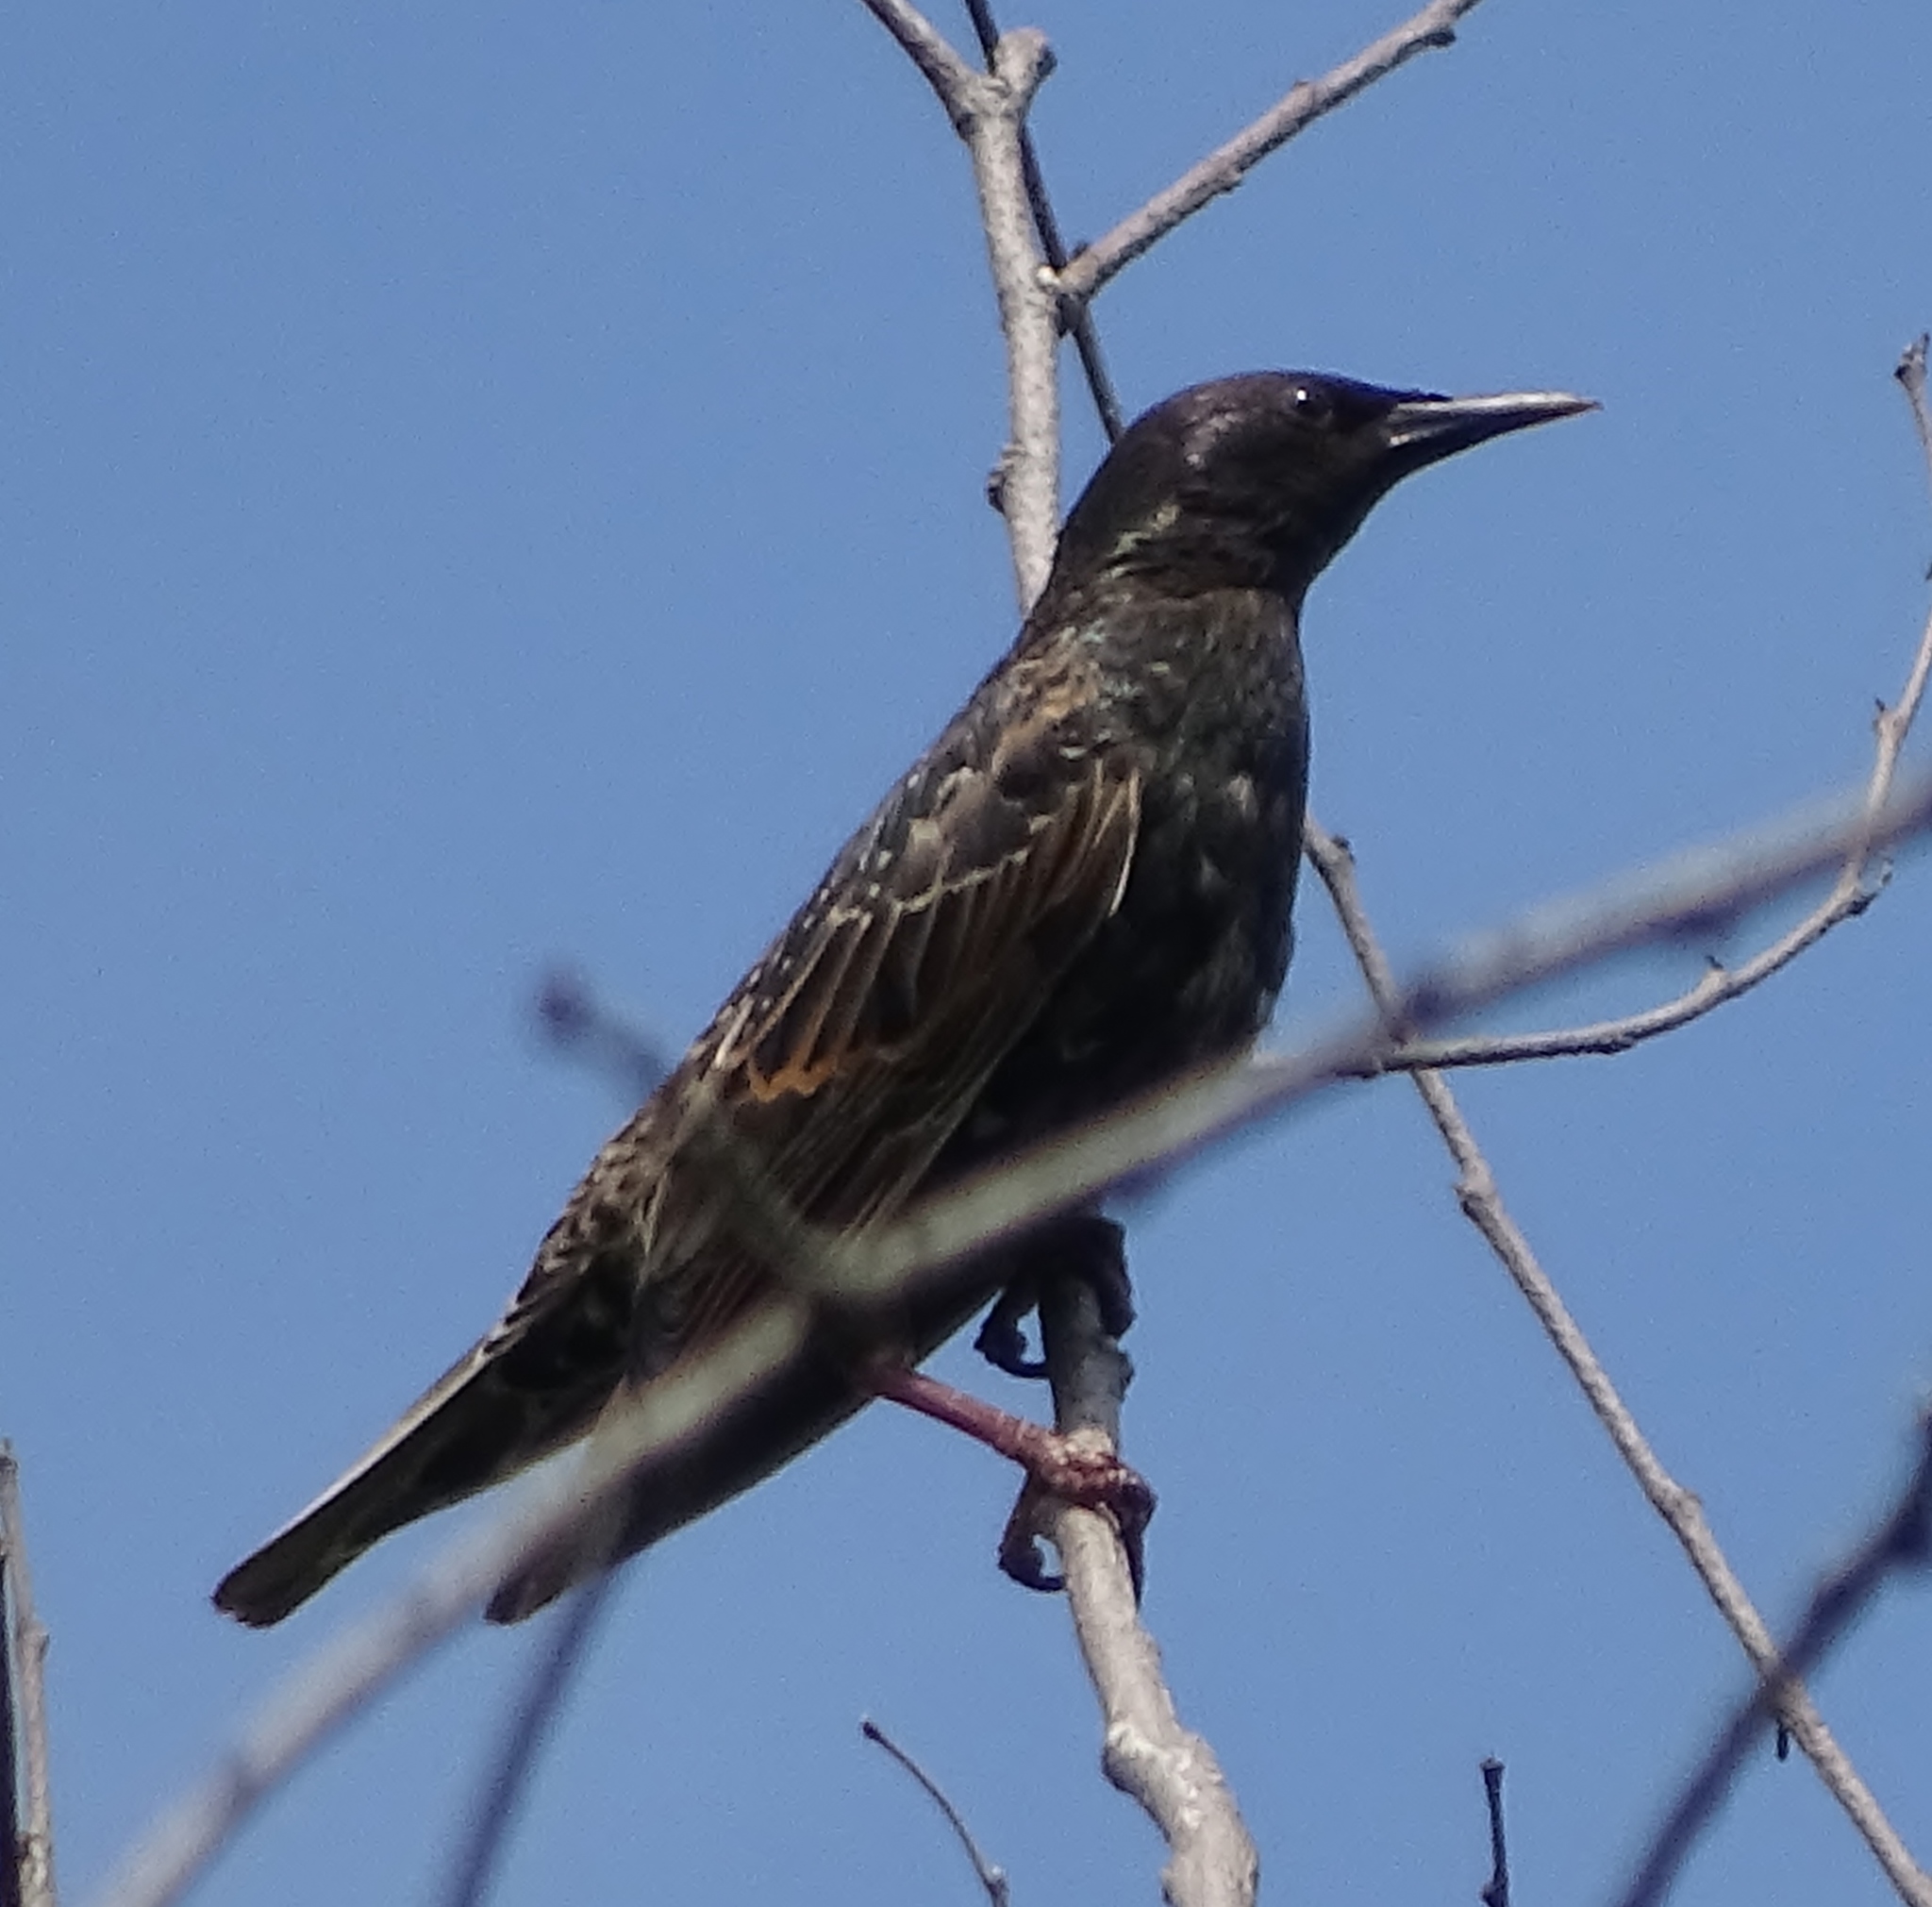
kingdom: Animalia
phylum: Chordata
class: Aves
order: Passeriformes
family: Sturnidae
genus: Sturnus
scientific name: Sturnus vulgaris
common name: Common starling
